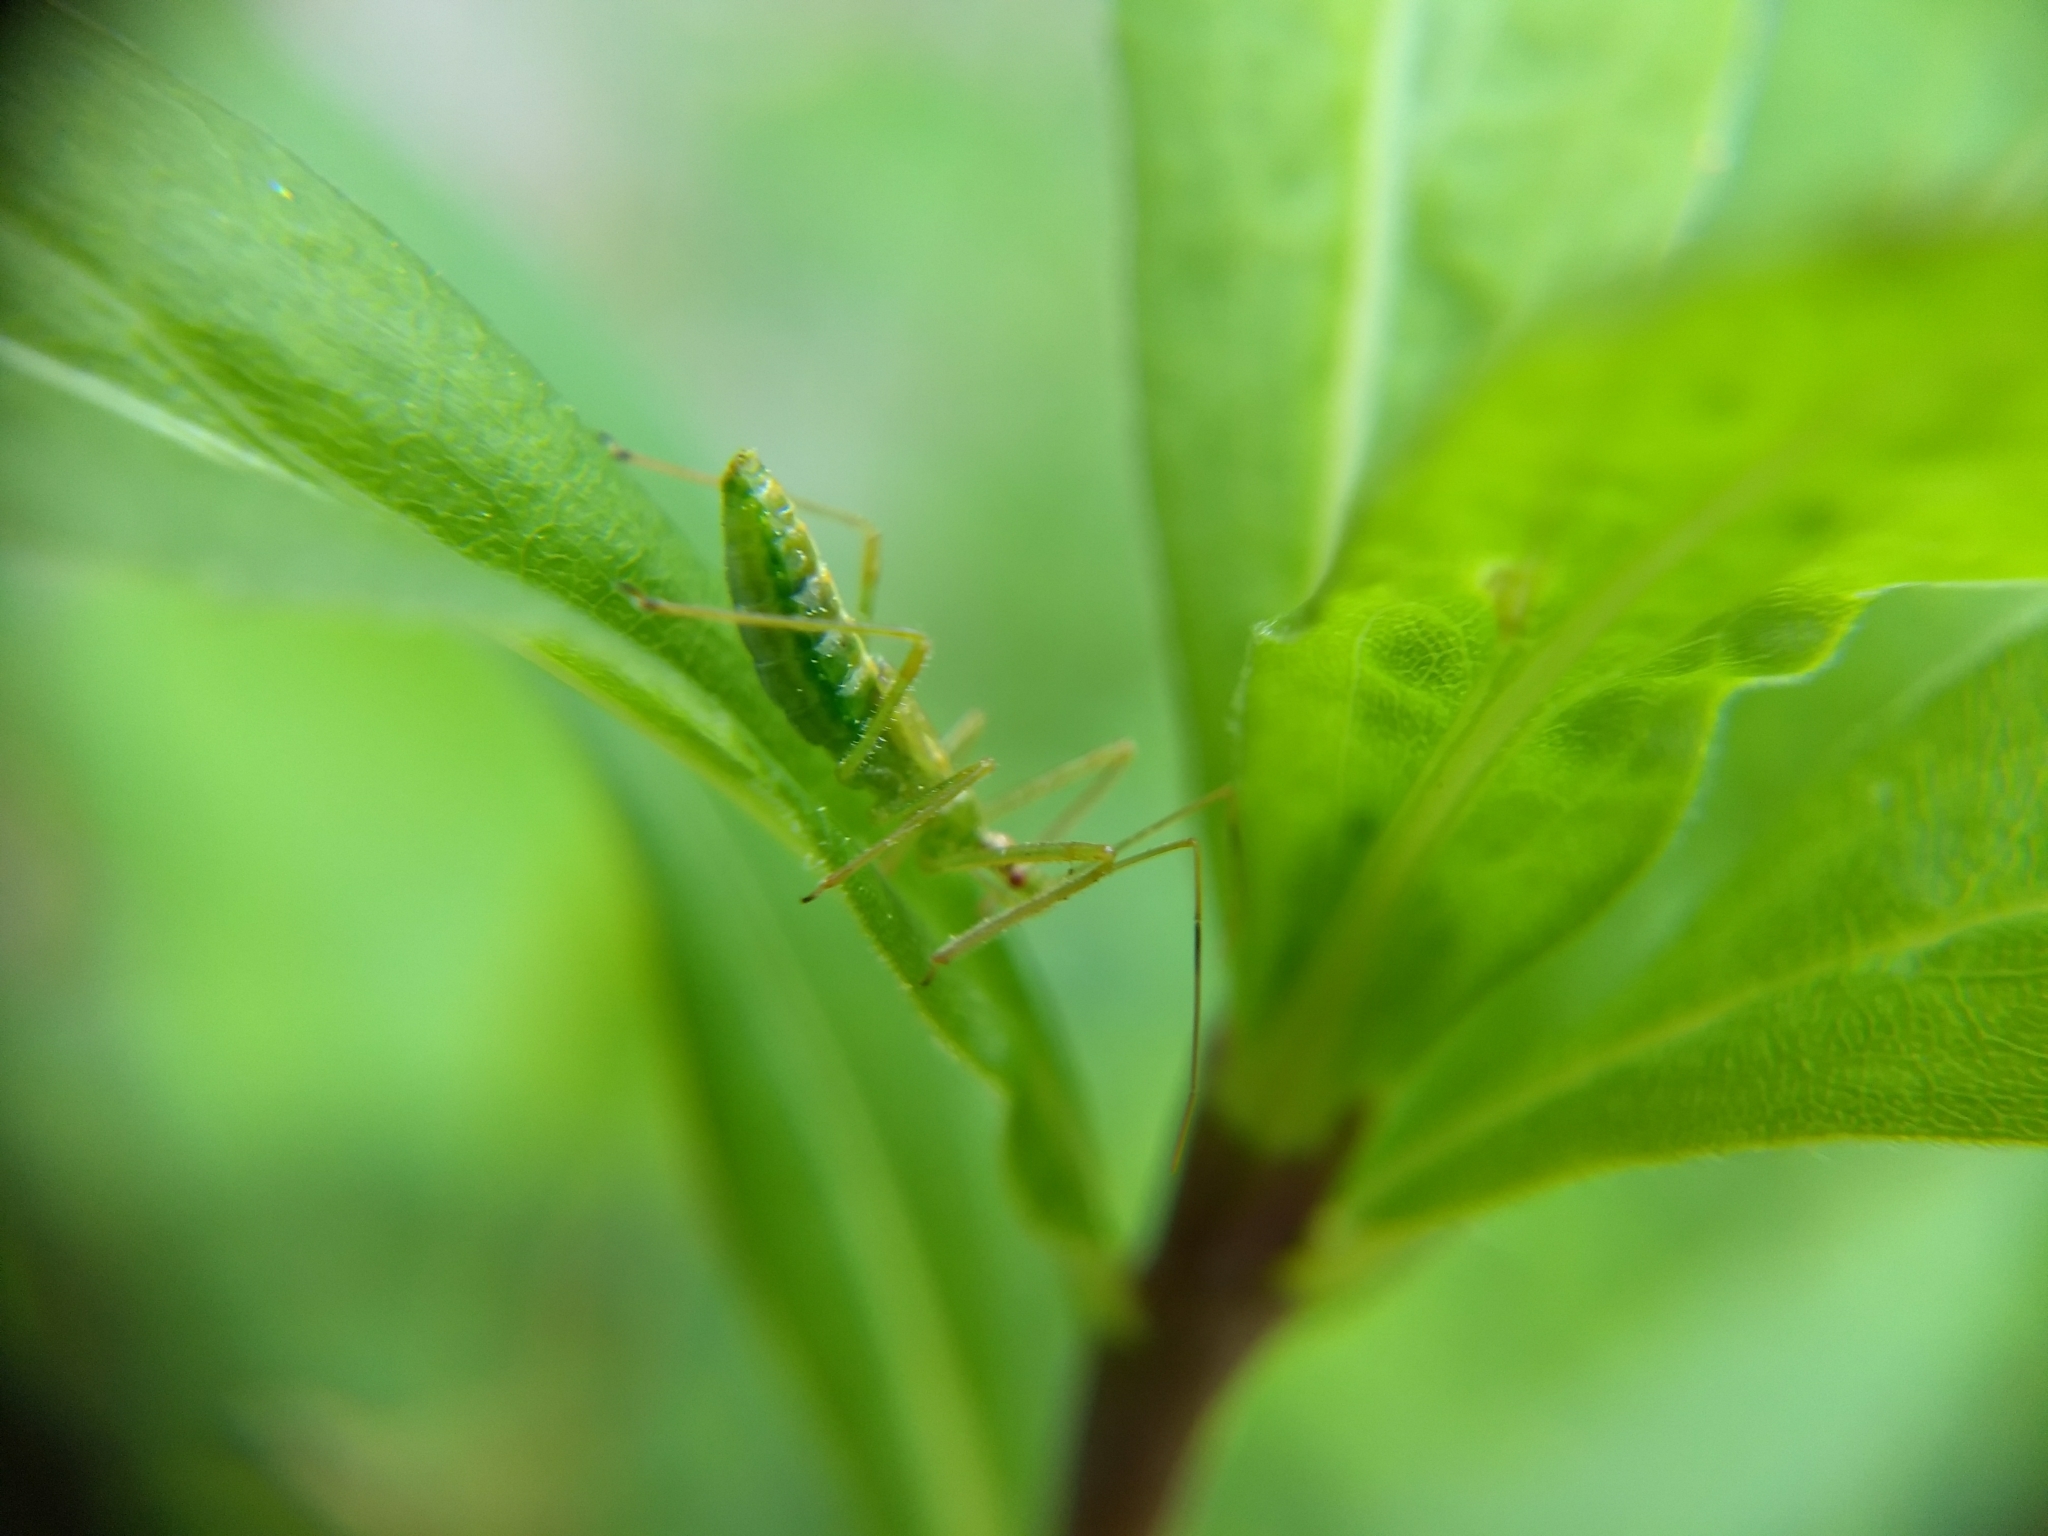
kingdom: Animalia
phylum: Arthropoda
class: Insecta
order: Hemiptera
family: Reduviidae
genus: Zelus
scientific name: Zelus luridus
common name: Pale green assassin bug
